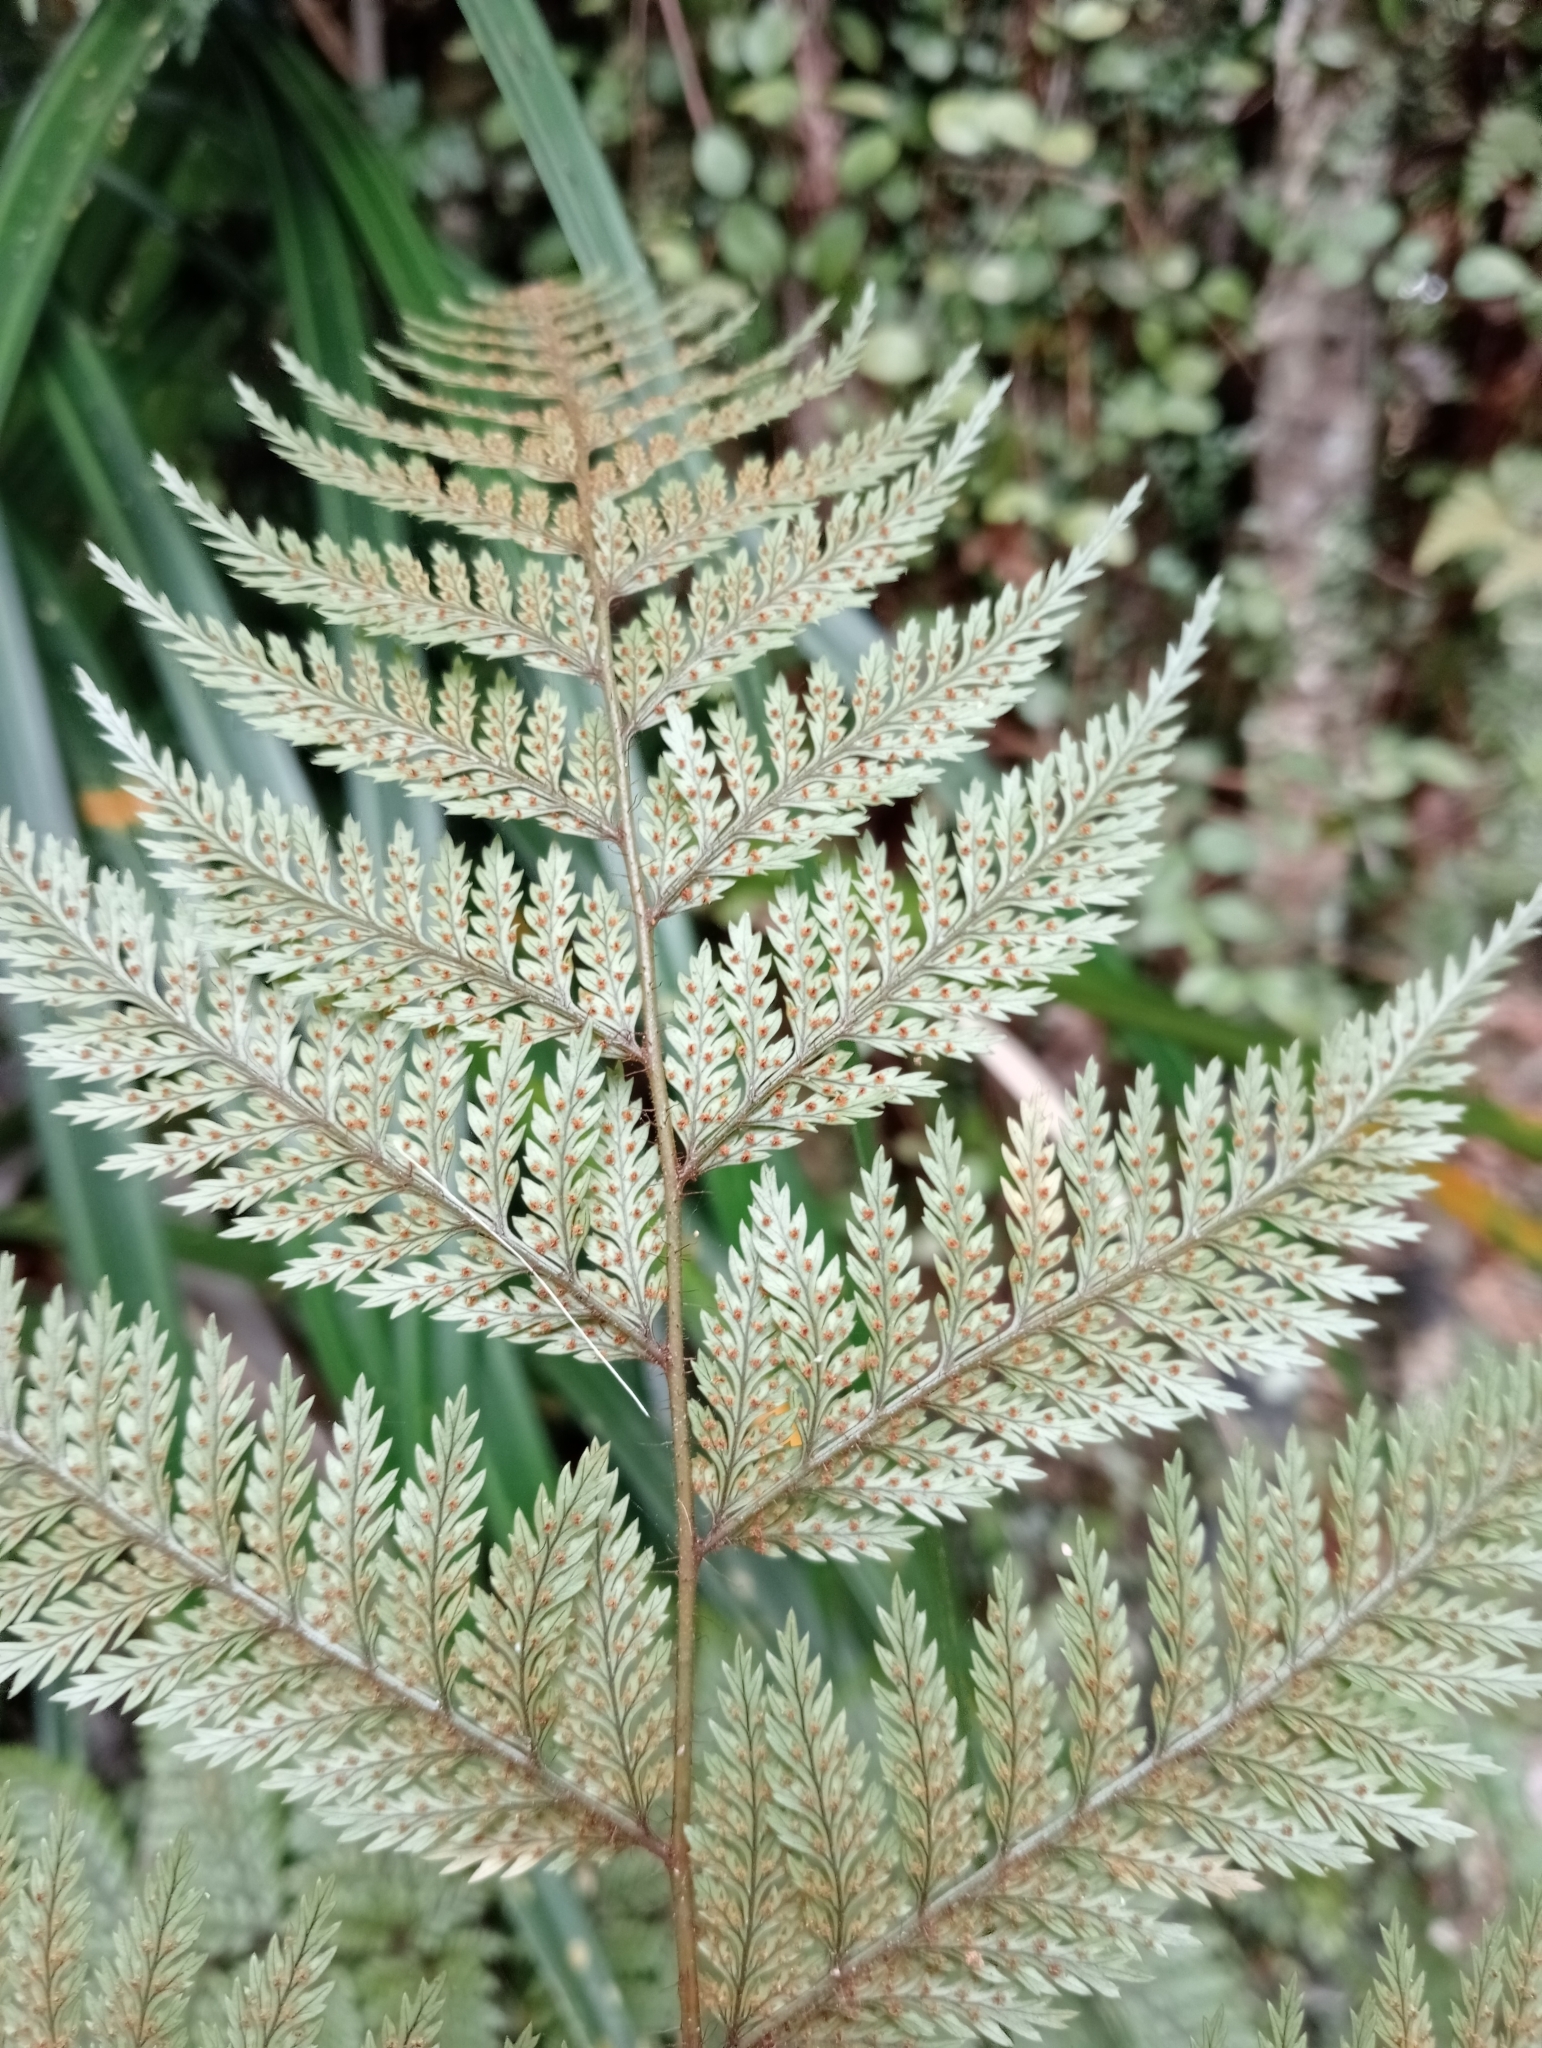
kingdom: Plantae
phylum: Tracheophyta
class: Polypodiopsida
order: Polypodiales
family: Dryopteridaceae
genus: Lastreopsis
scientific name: Lastreopsis hispida
